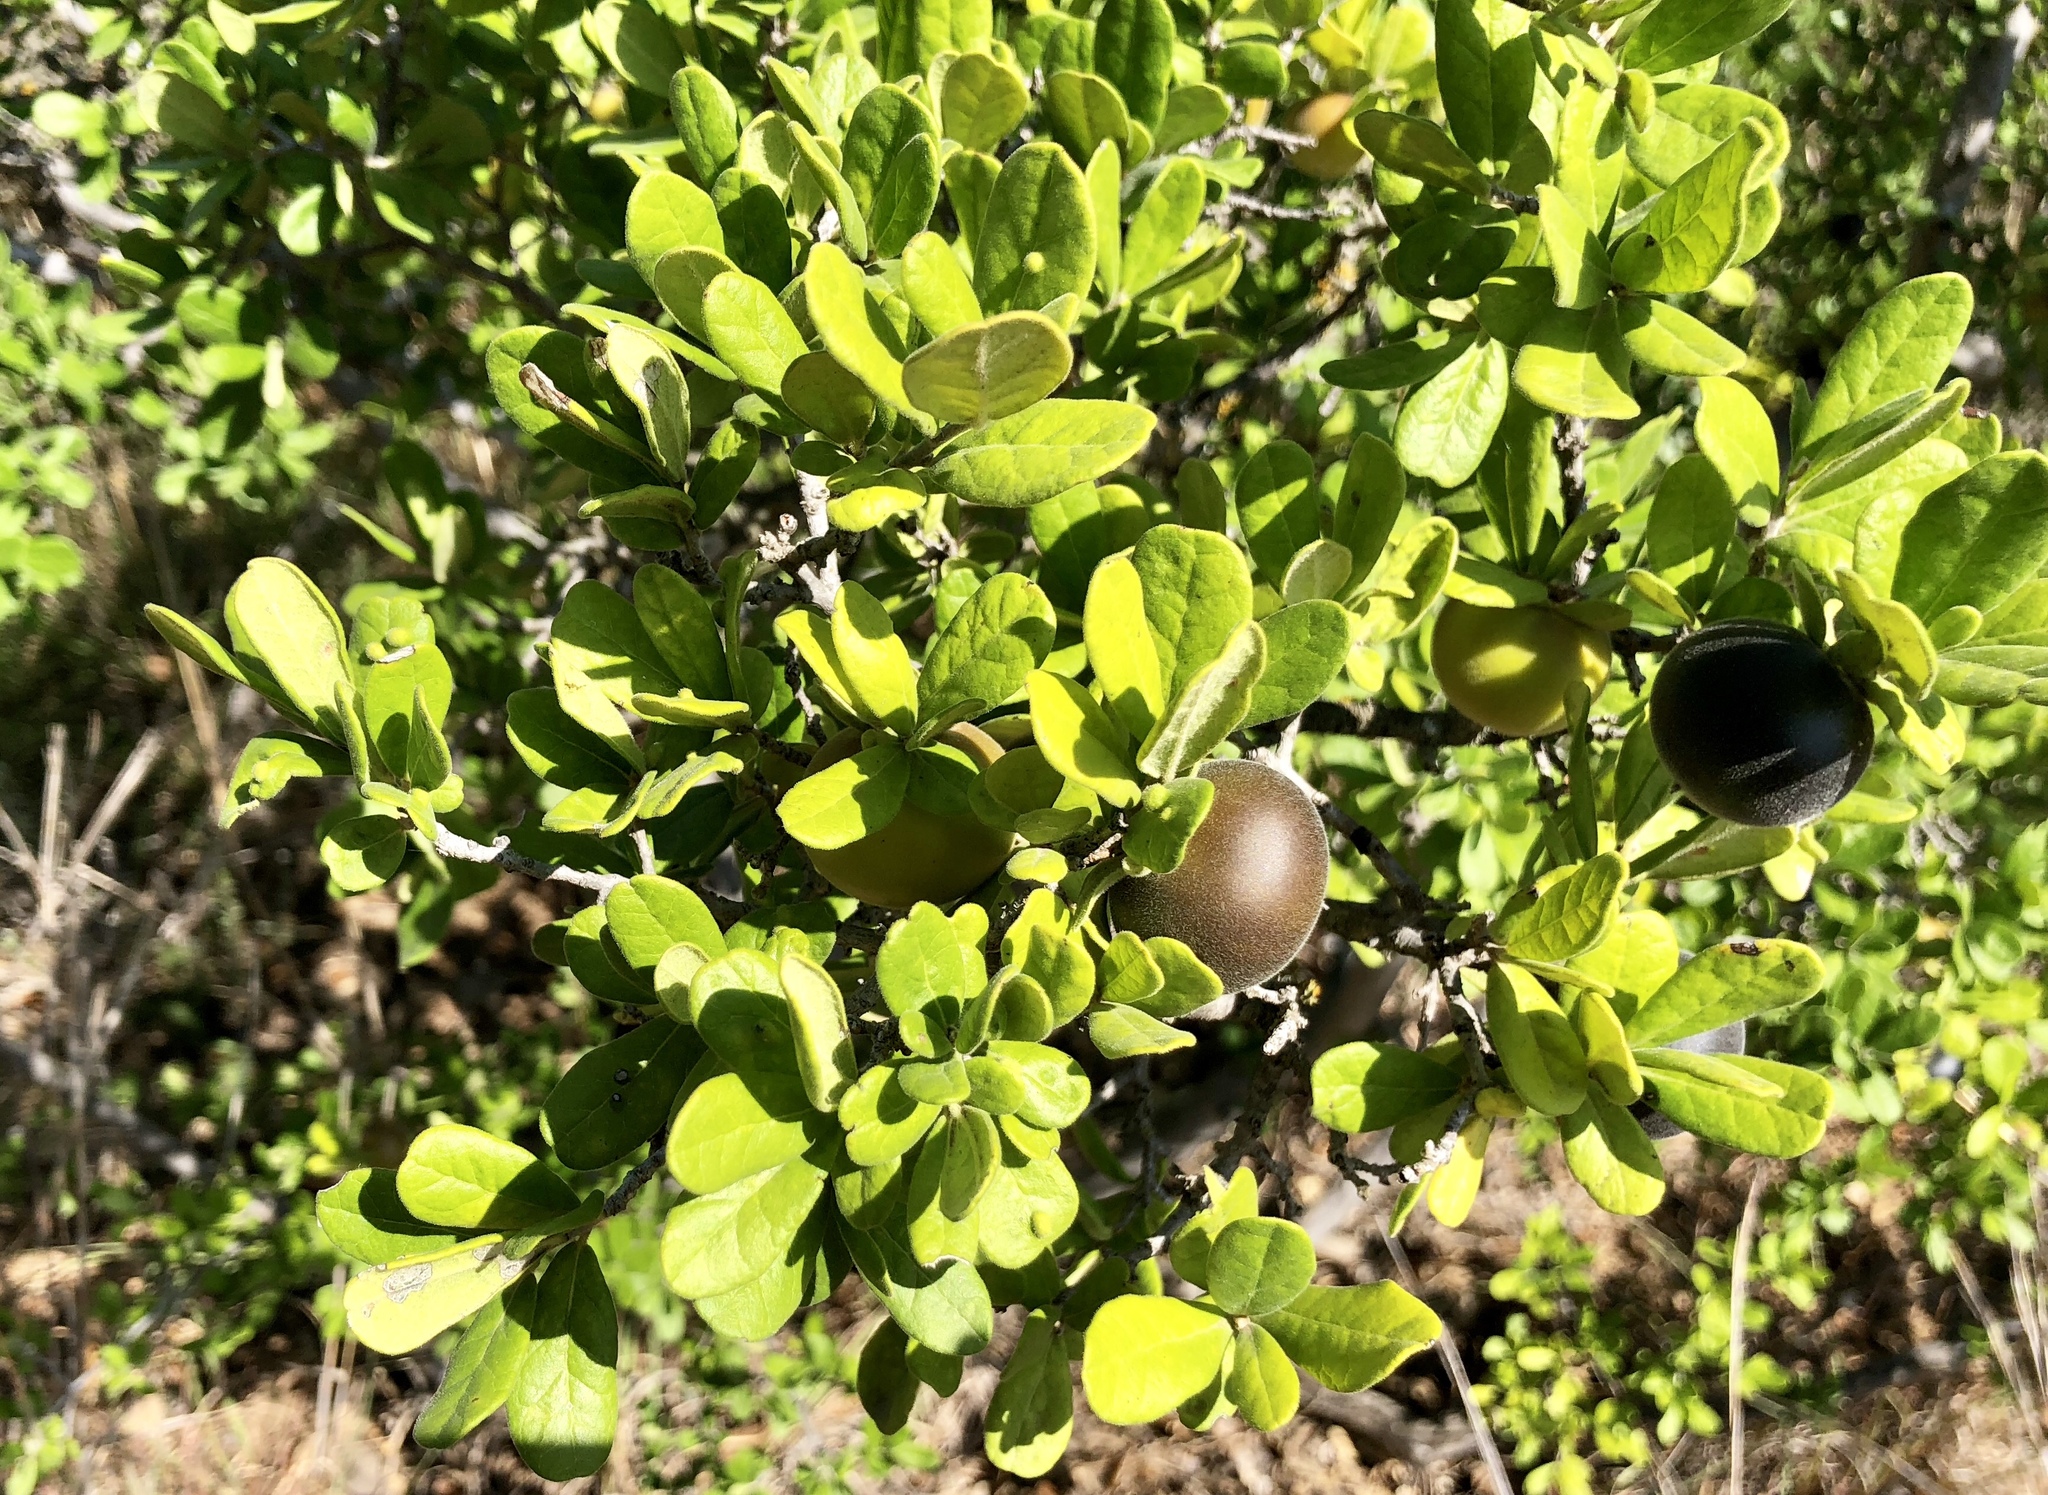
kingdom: Plantae
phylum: Tracheophyta
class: Magnoliopsida
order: Ericales
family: Ebenaceae
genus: Diospyros
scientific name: Diospyros texana
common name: Texas persimmon
